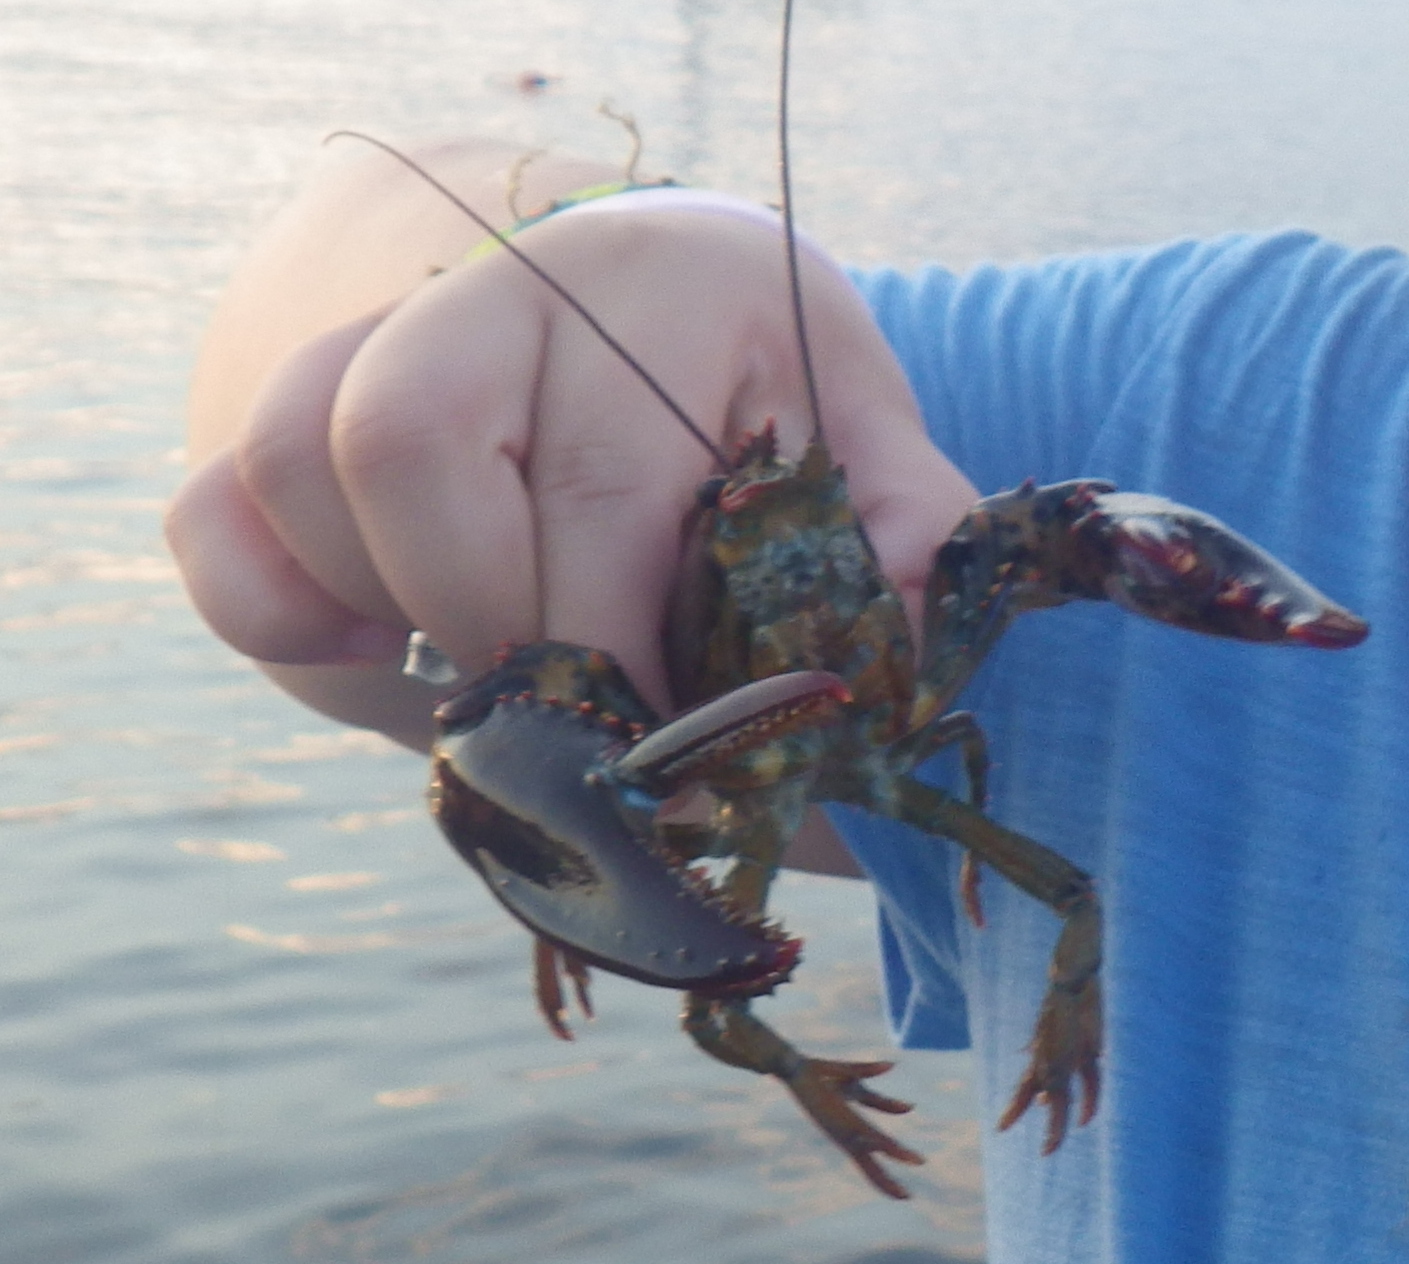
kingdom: Animalia
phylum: Arthropoda
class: Malacostraca
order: Decapoda
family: Nephropidae
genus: Homarus
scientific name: Homarus americanus
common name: American lobster
